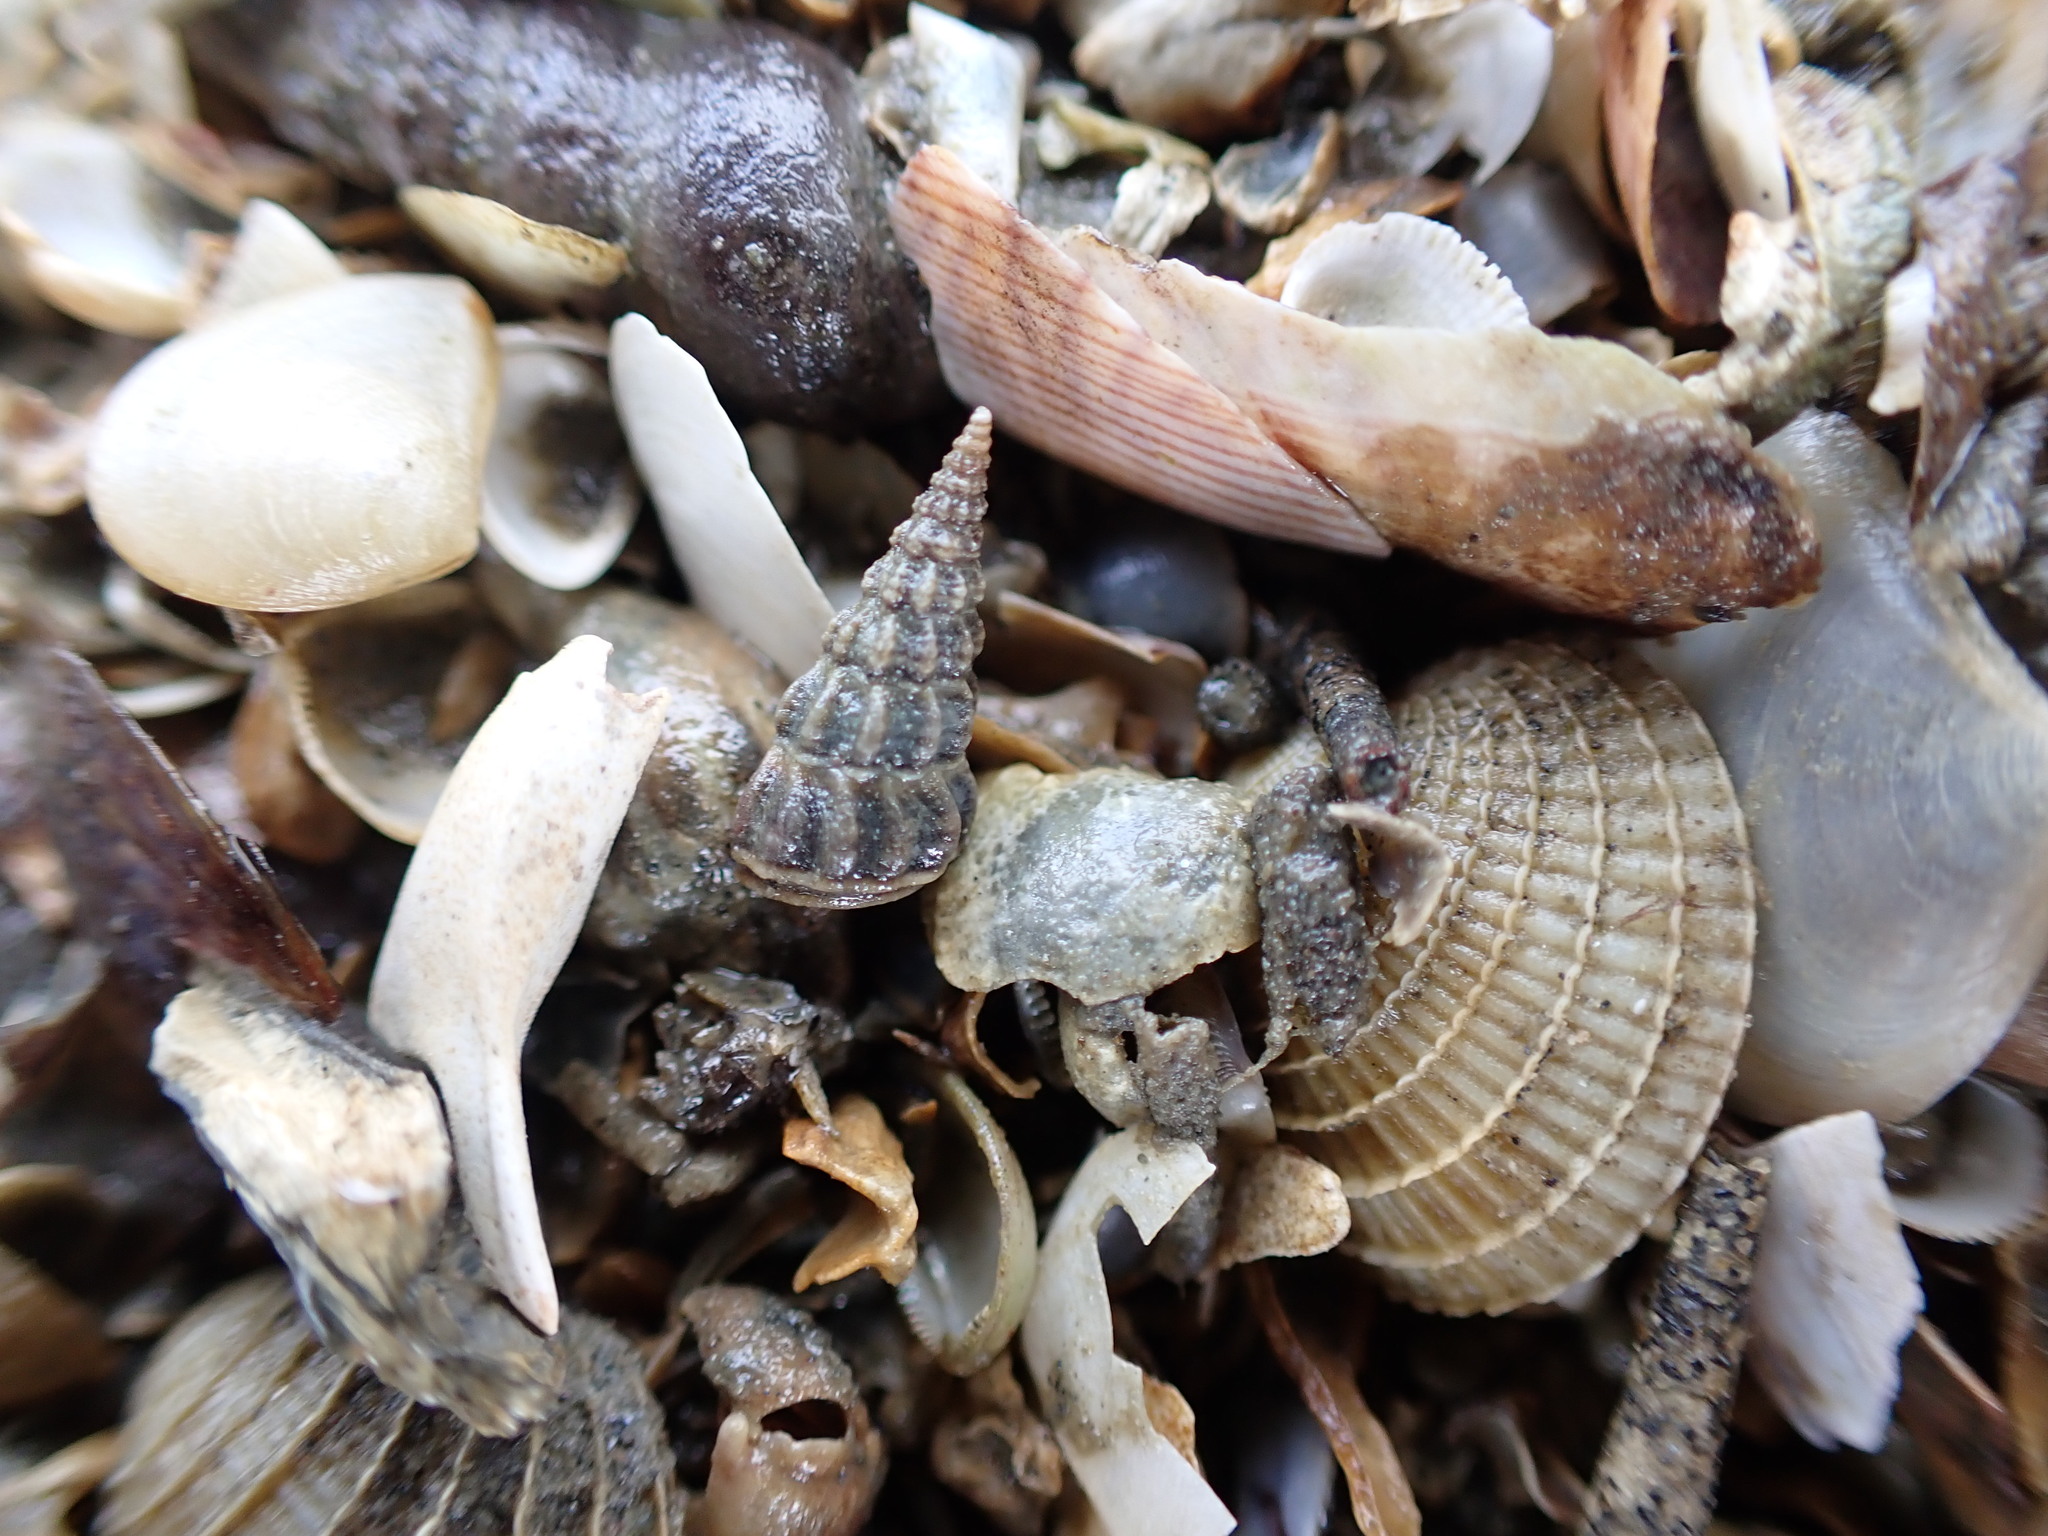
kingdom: Animalia
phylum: Mollusca
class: Gastropoda
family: Batillariidae
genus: Zeacumantus
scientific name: Zeacumantus lutulentus
